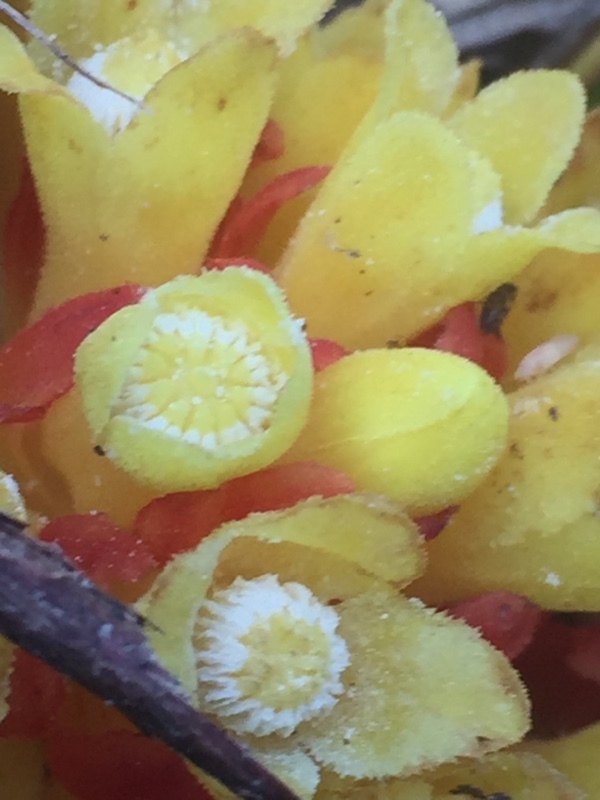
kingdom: Plantae
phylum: Tracheophyta
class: Magnoliopsida
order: Malvales
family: Cytinaceae
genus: Cytinus
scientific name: Cytinus hypocistis
